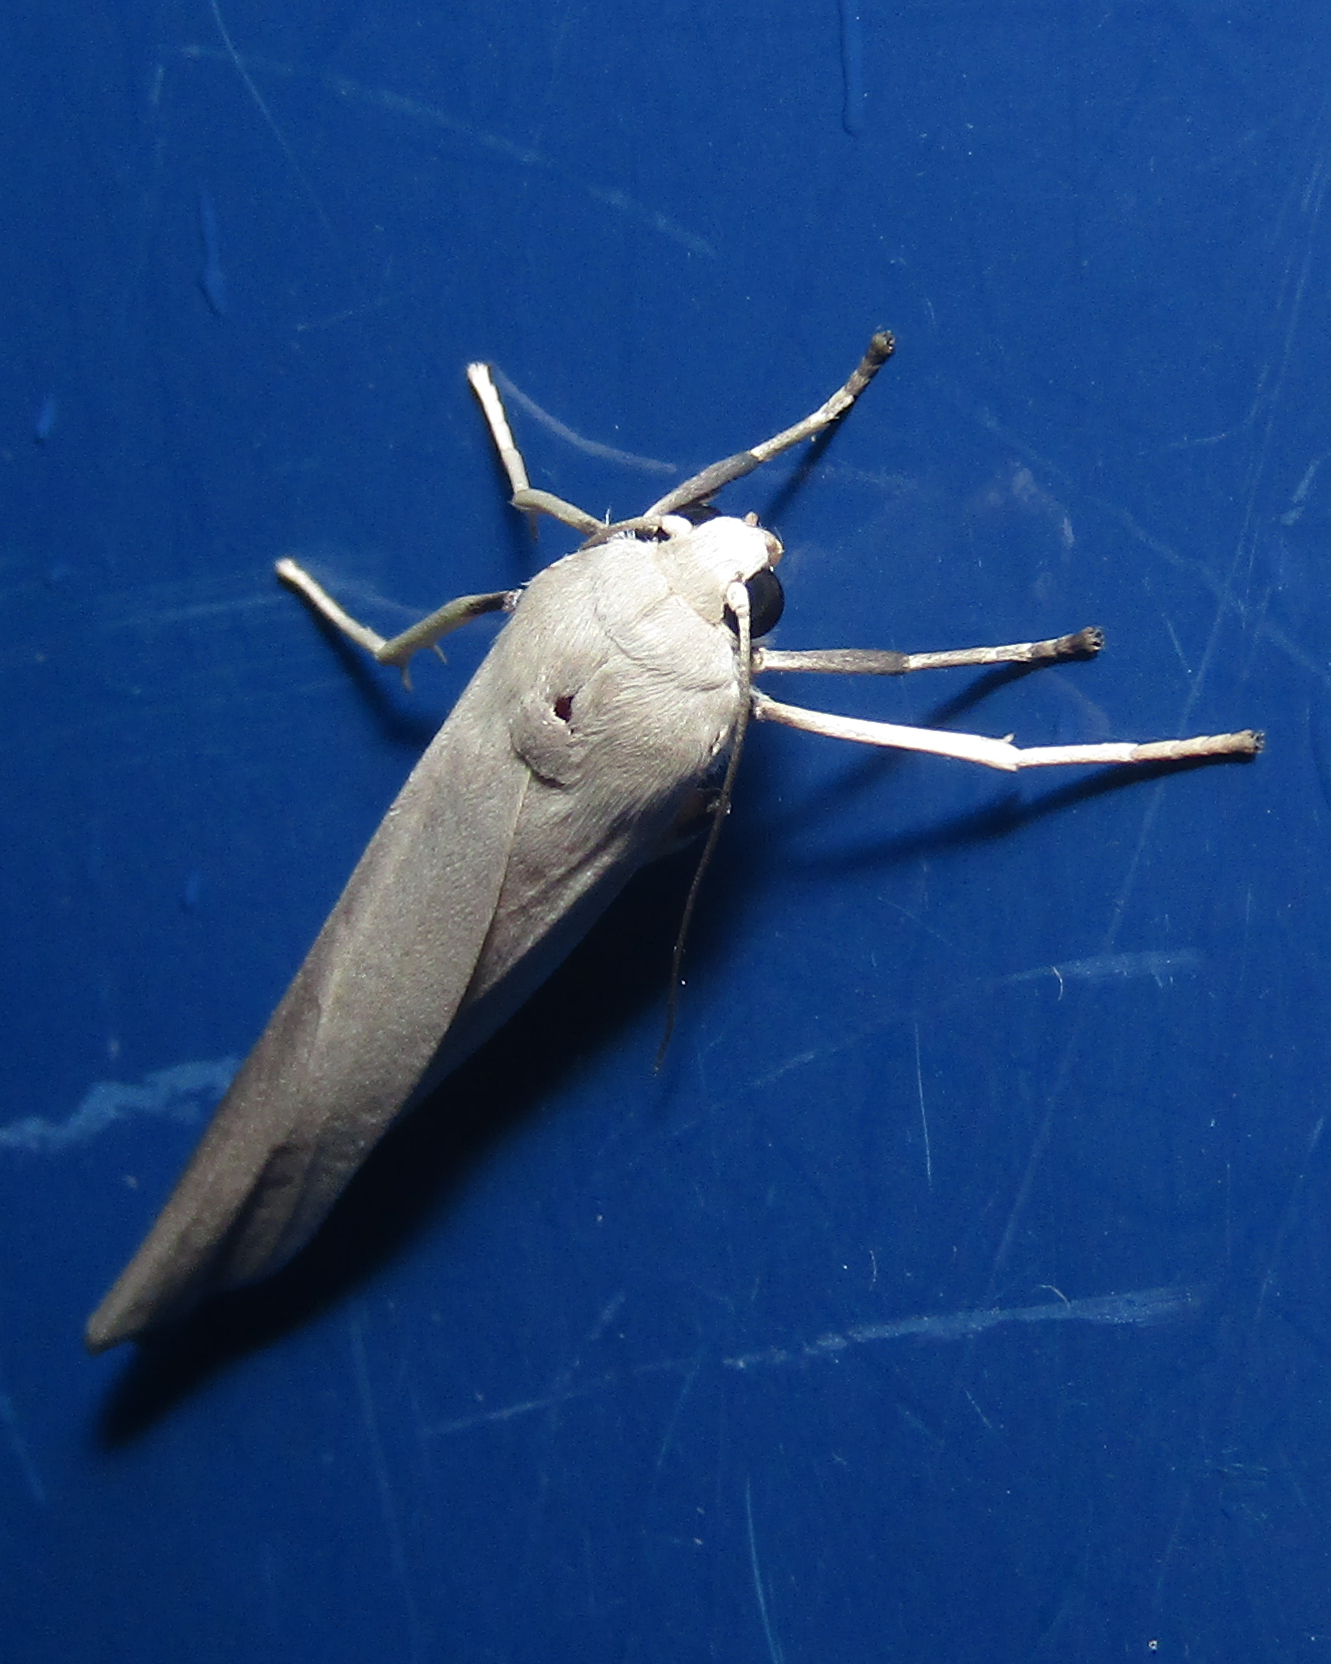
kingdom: Animalia
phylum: Arthropoda
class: Insecta
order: Lepidoptera
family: Erebidae
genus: Calamidia
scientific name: Calamidia hirta
